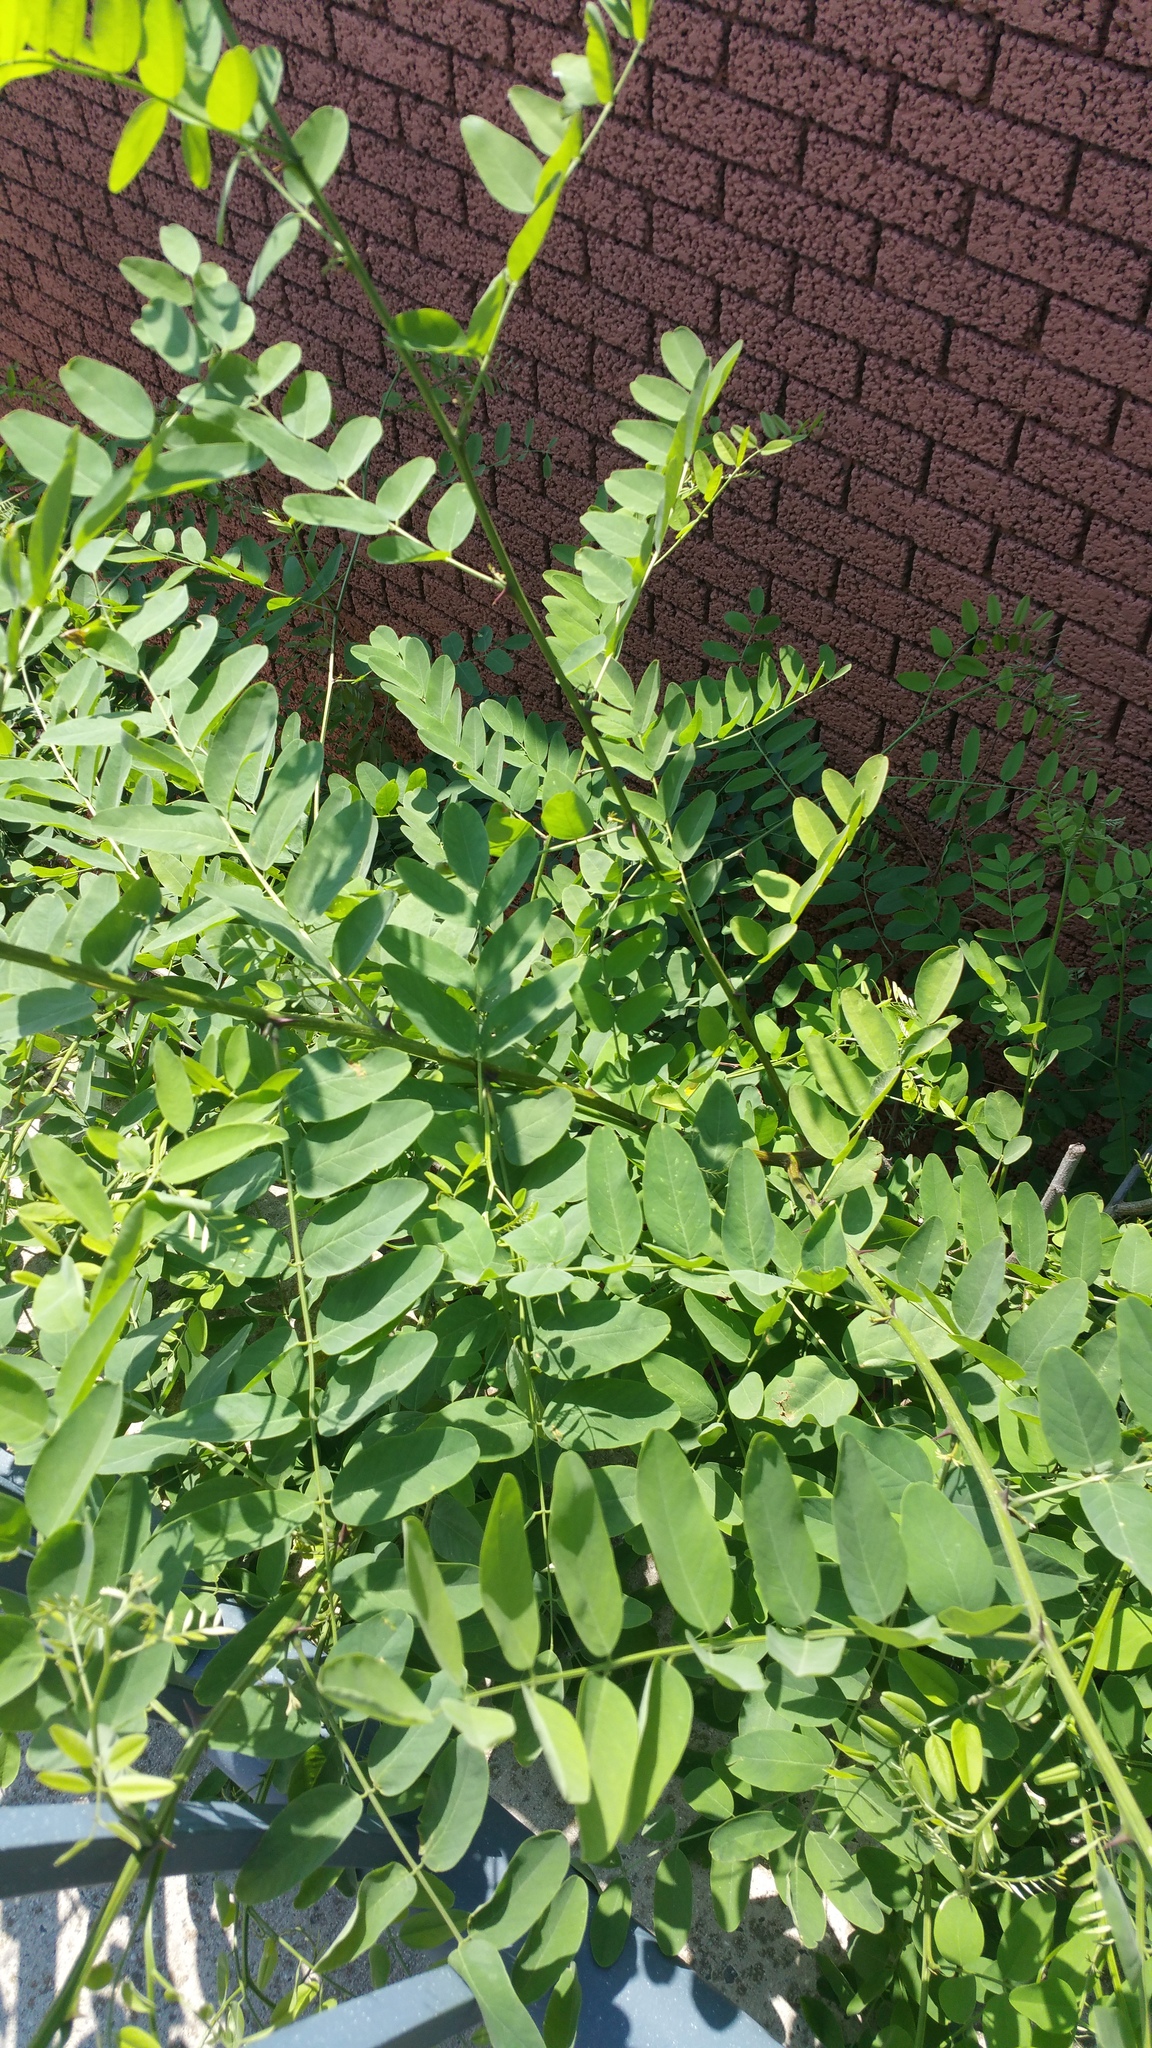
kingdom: Plantae
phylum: Tracheophyta
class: Magnoliopsida
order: Fabales
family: Fabaceae
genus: Robinia
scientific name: Robinia pseudoacacia
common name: Black locust
